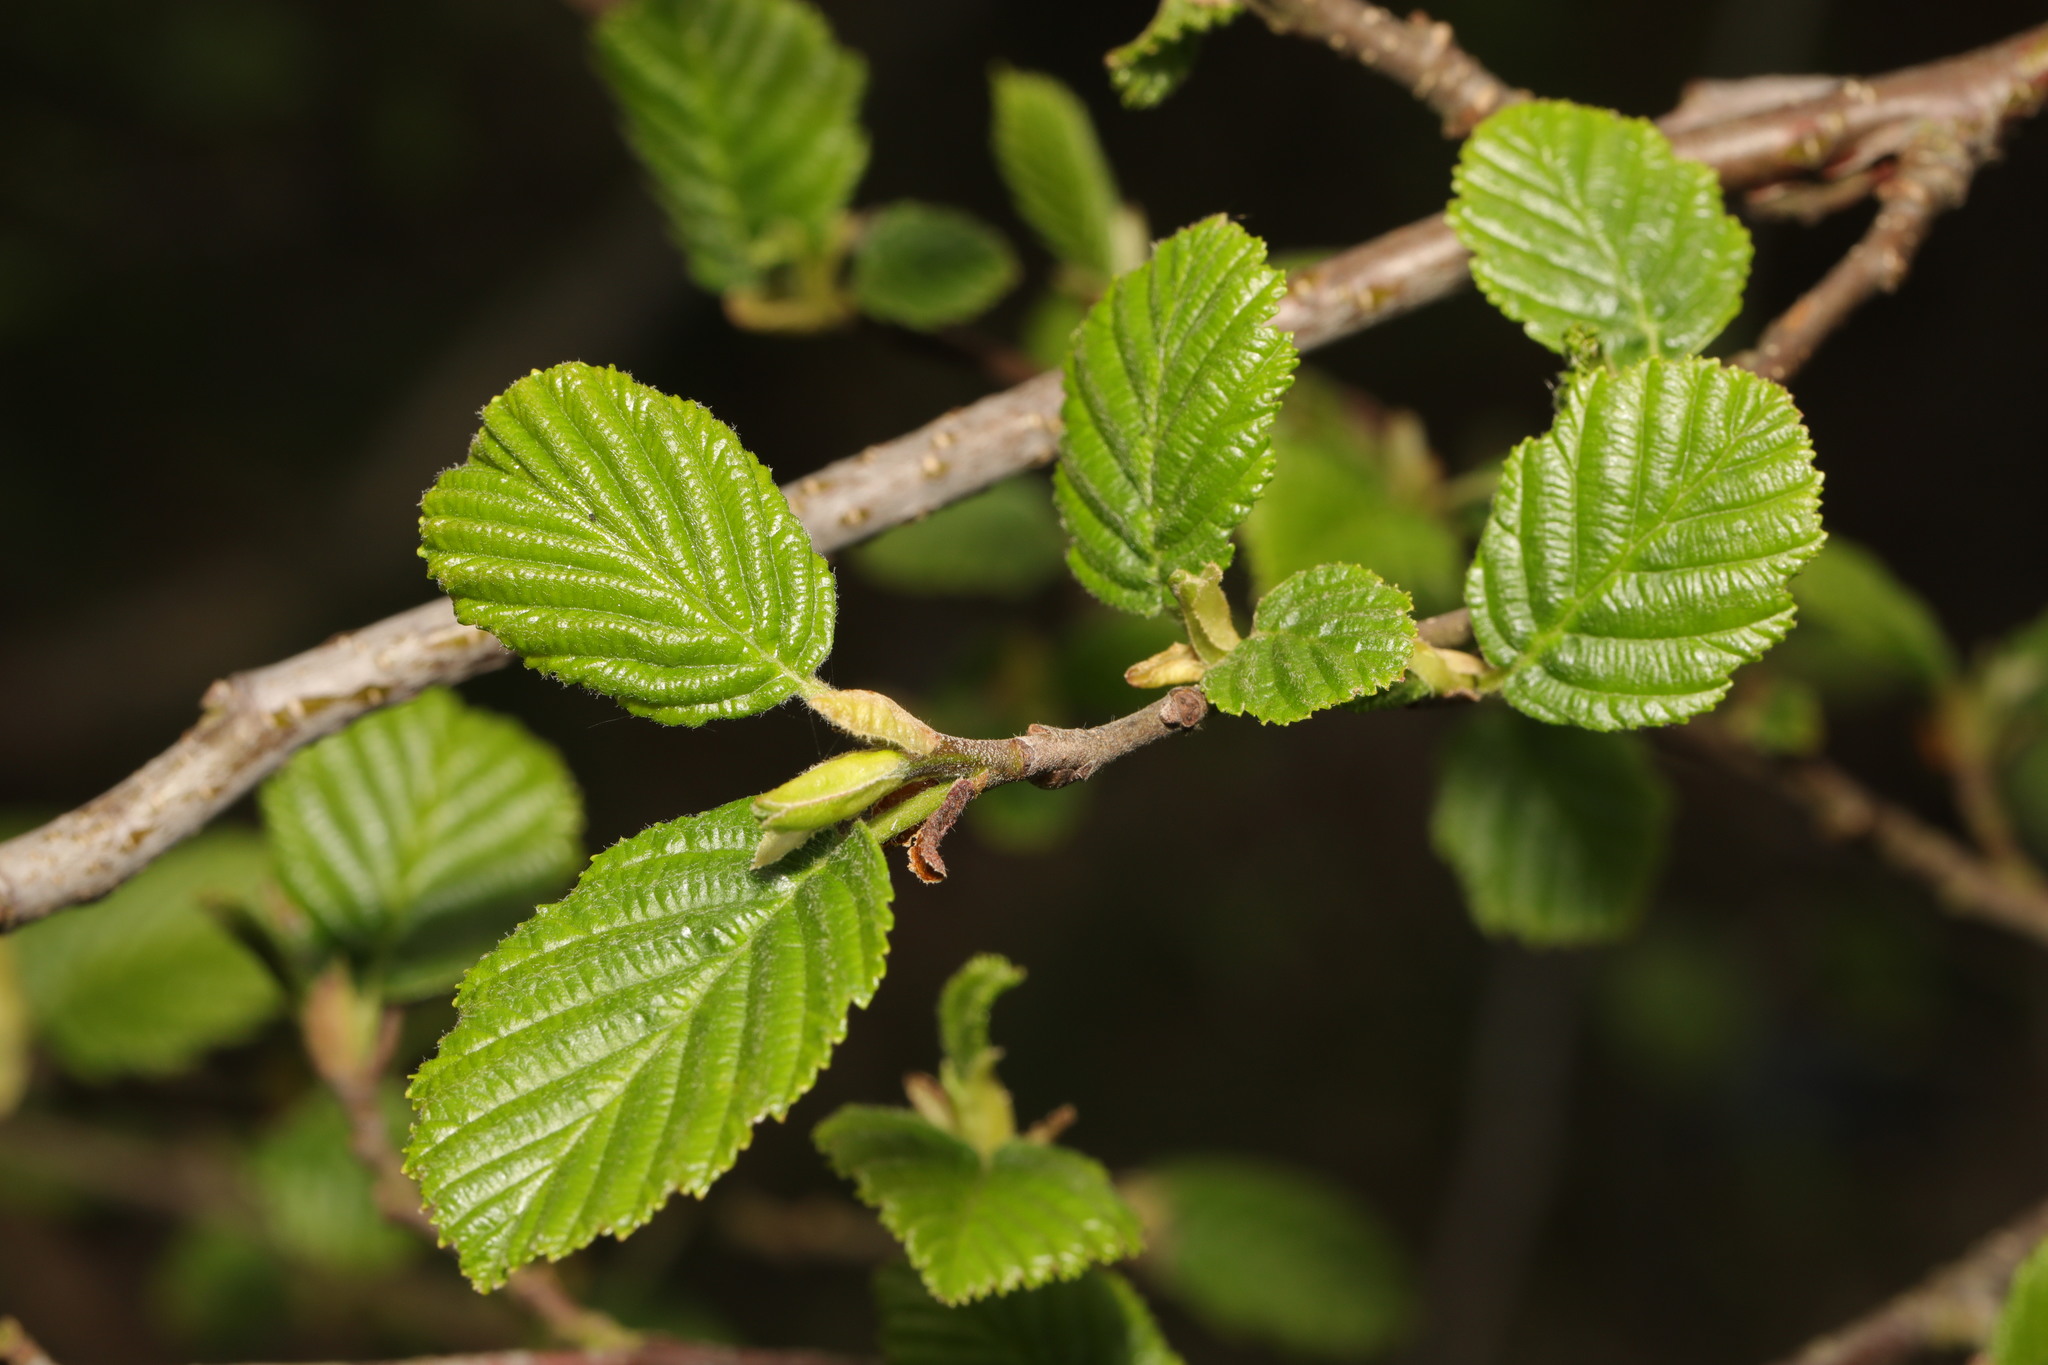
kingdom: Plantae
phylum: Tracheophyta
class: Magnoliopsida
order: Fagales
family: Betulaceae
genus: Alnus
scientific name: Alnus glutinosa
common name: Black alder
